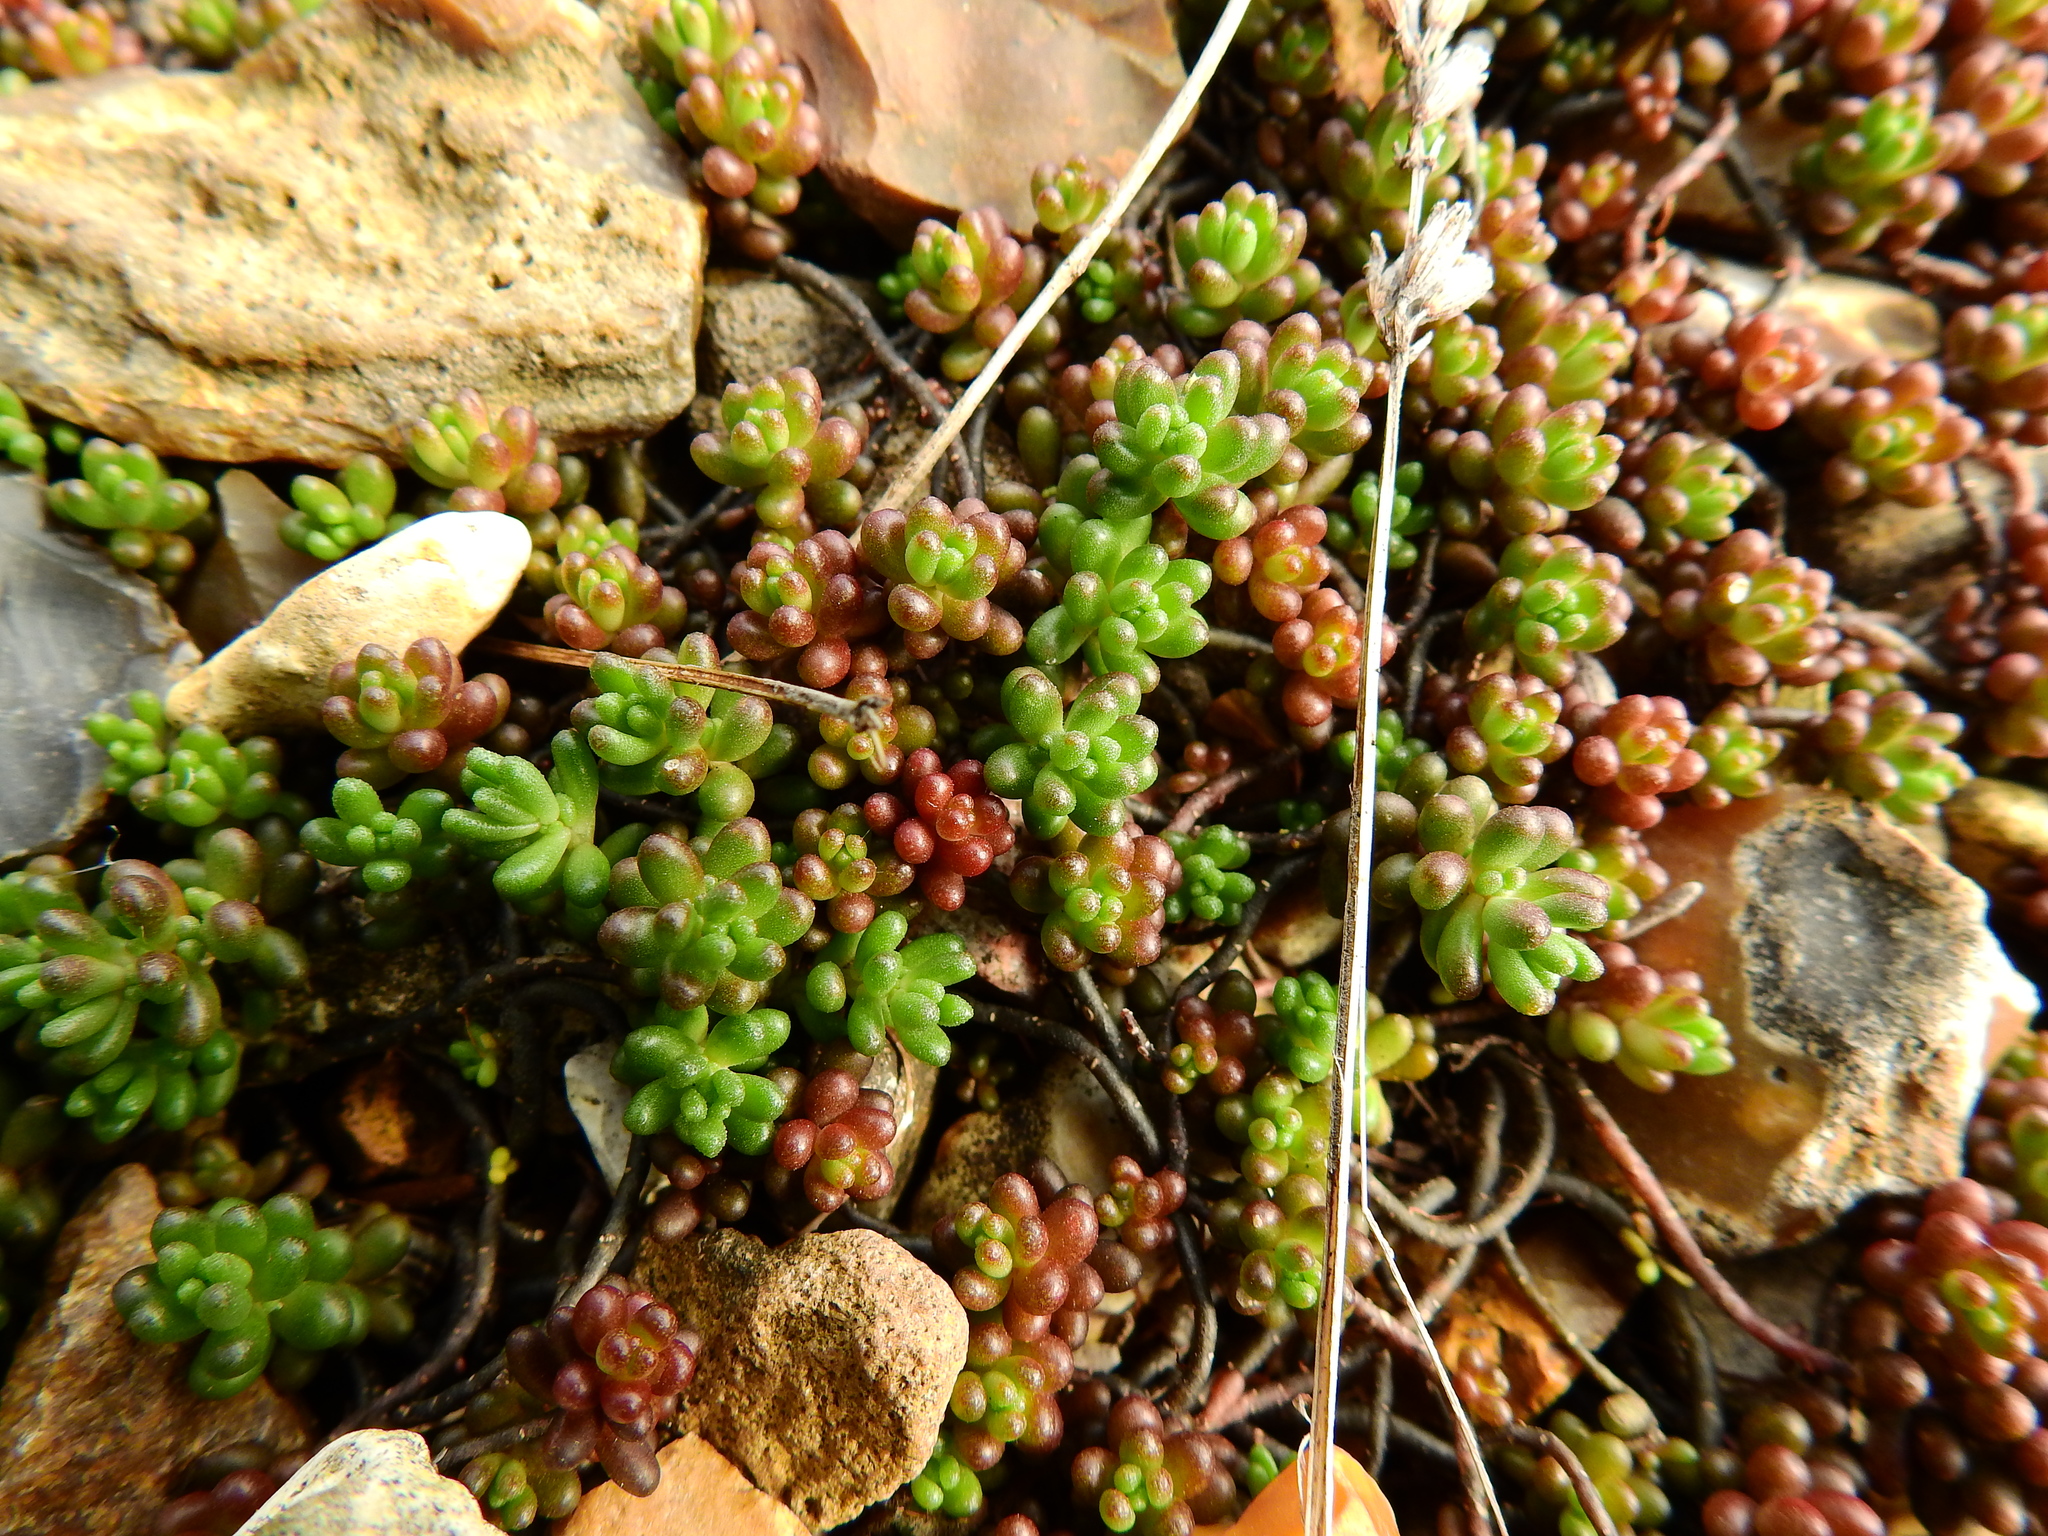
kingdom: Plantae
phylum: Tracheophyta
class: Magnoliopsida
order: Saxifragales
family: Crassulaceae
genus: Sedum
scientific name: Sedum album
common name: White stonecrop
